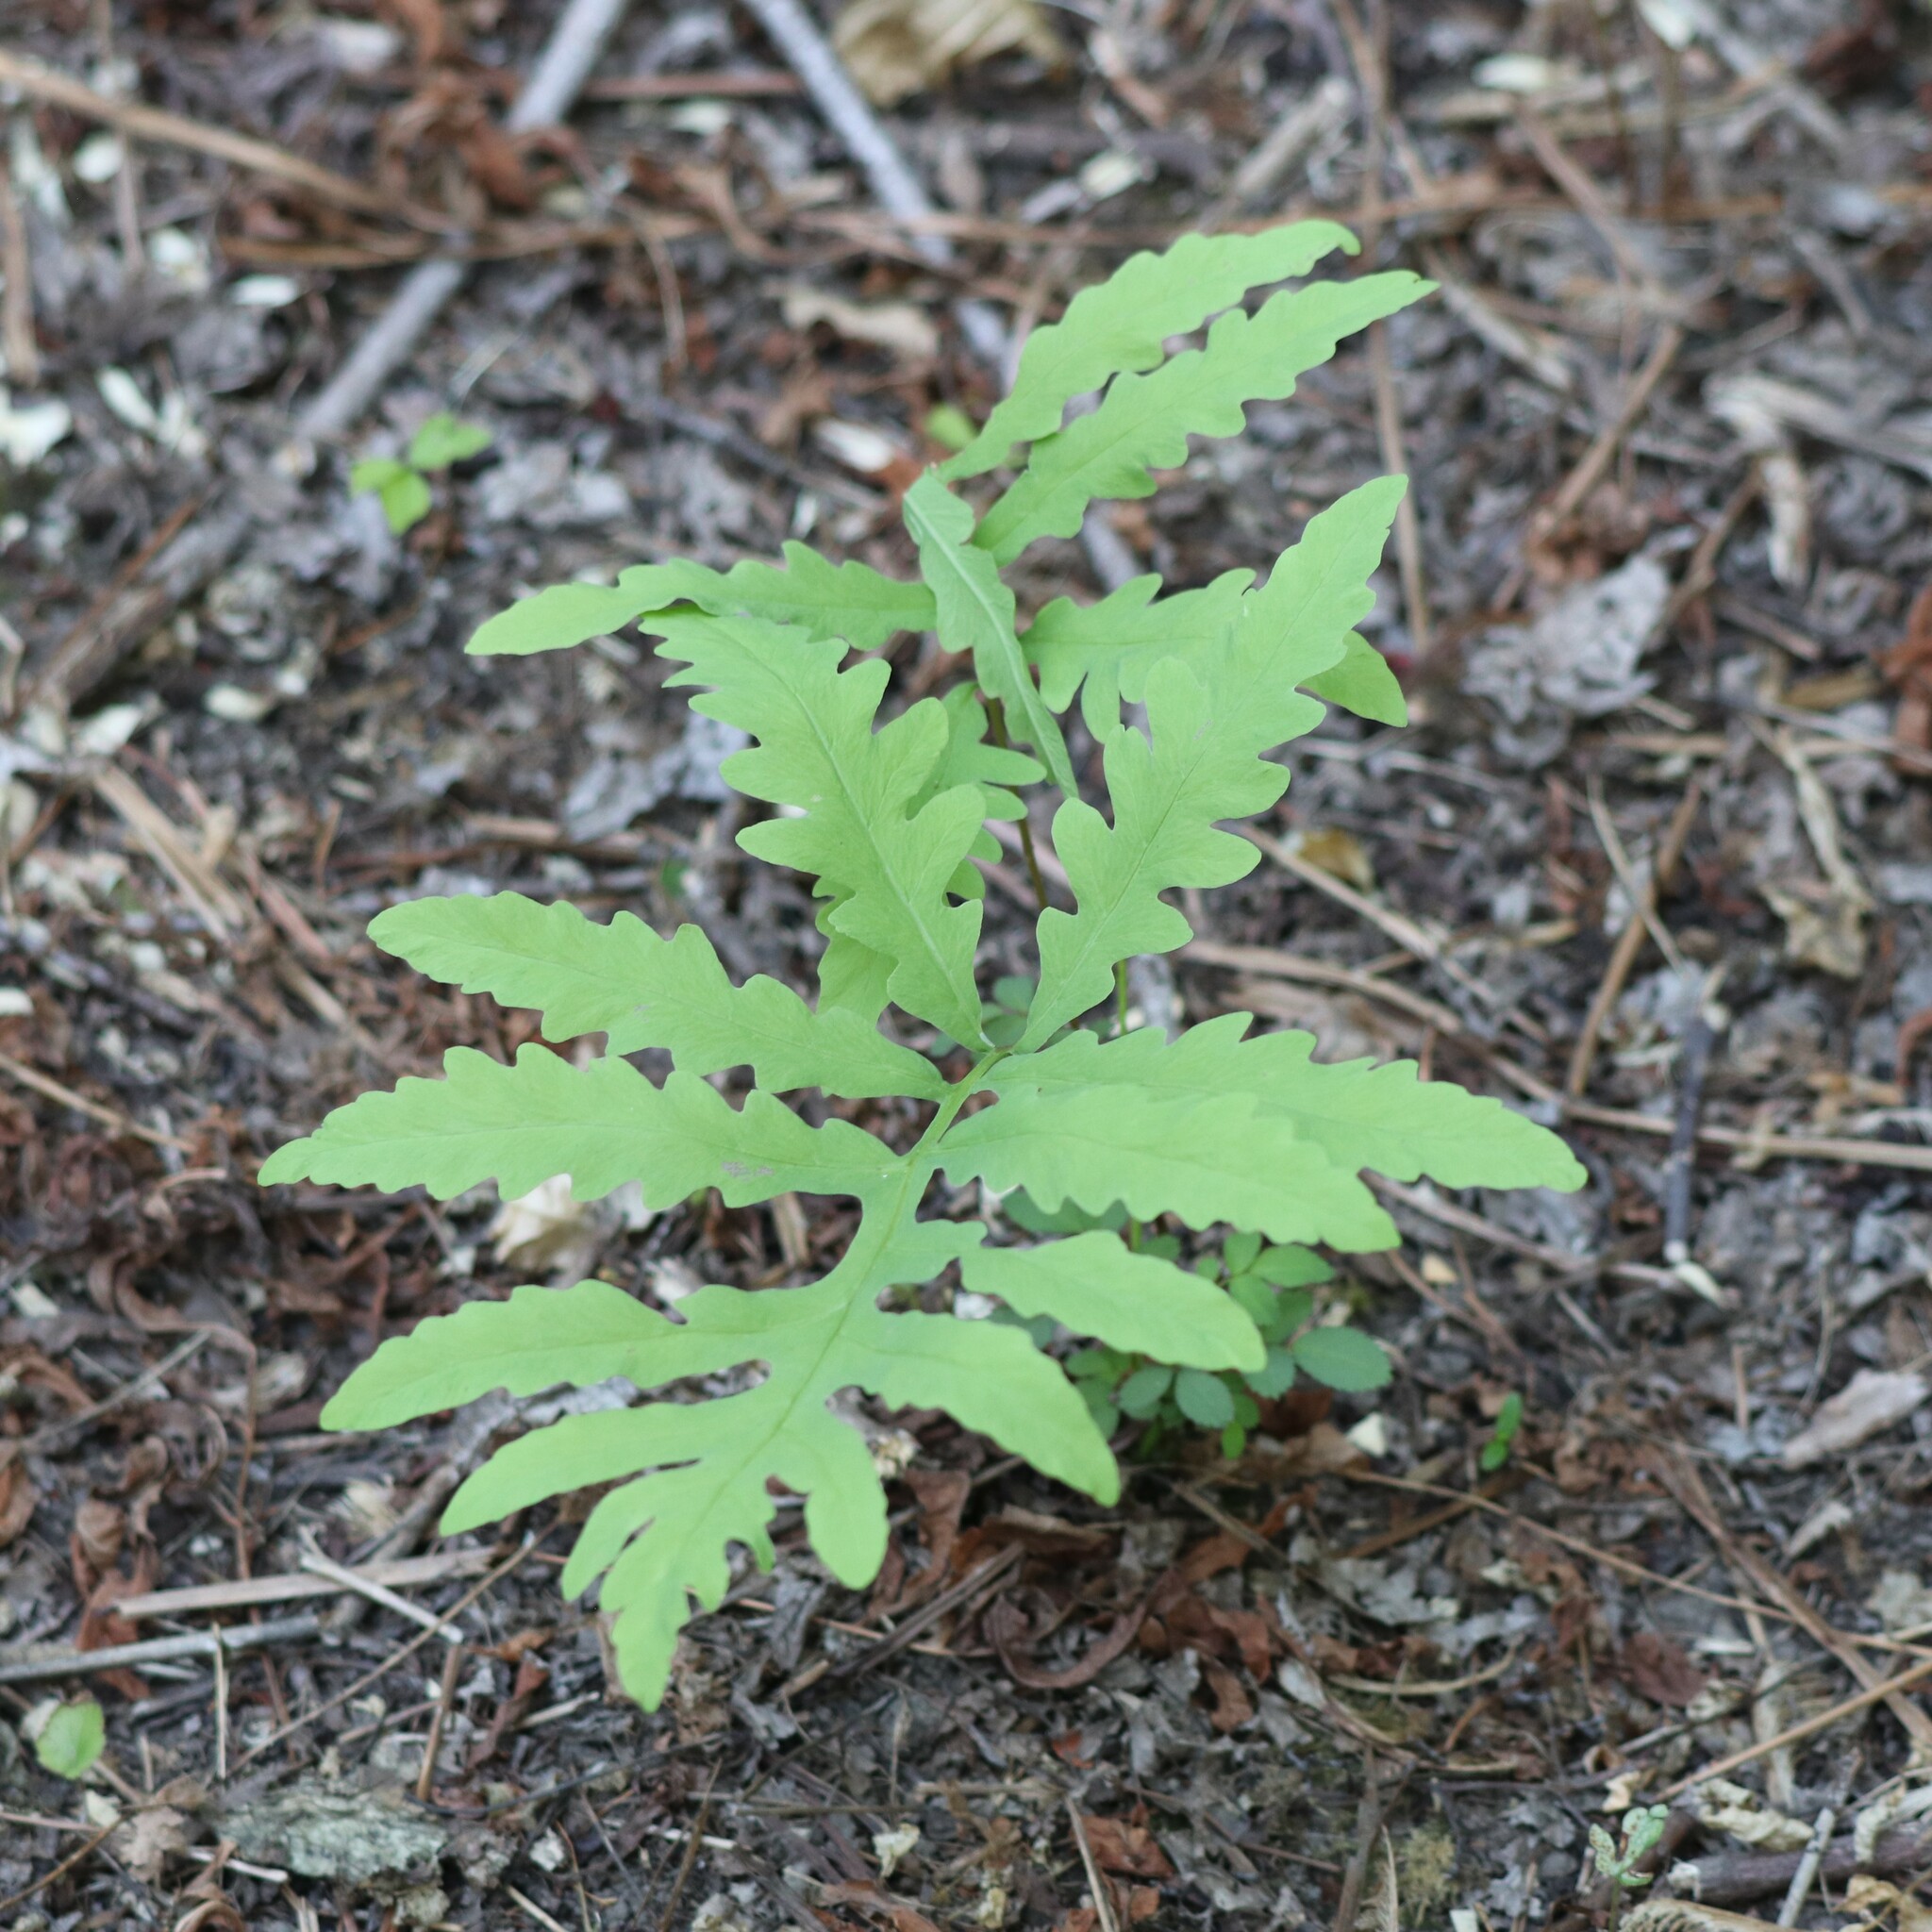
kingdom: Plantae
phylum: Tracheophyta
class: Polypodiopsida
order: Polypodiales
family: Onocleaceae
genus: Onoclea
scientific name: Onoclea sensibilis
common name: Sensitive fern
